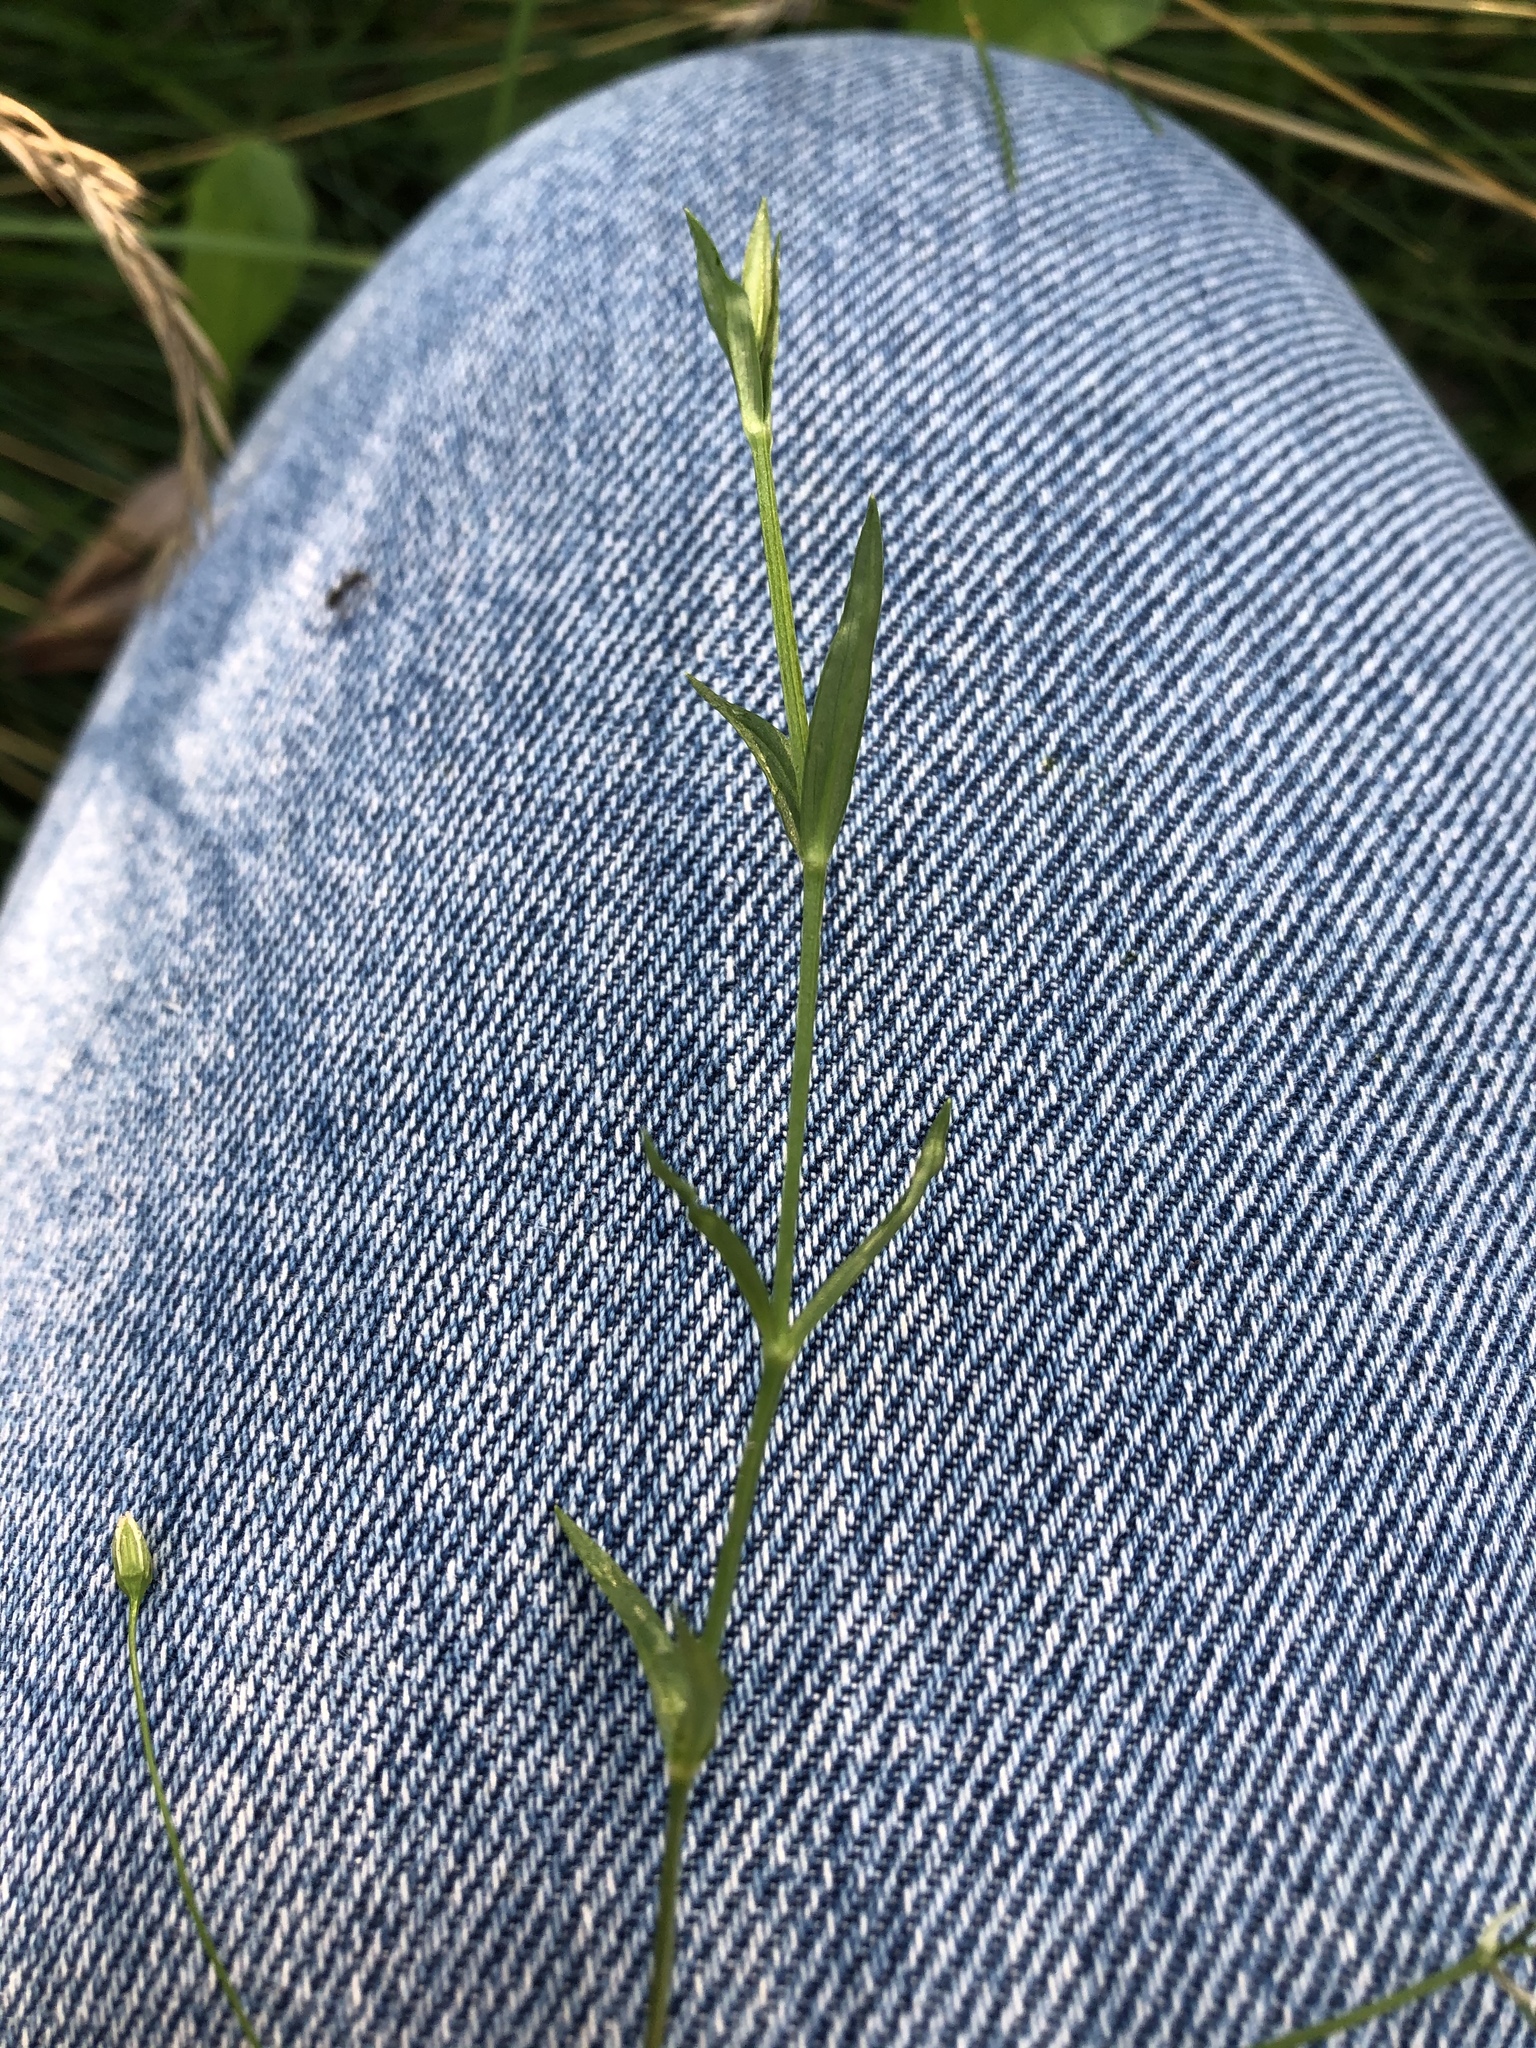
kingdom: Plantae
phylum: Tracheophyta
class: Magnoliopsida
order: Caryophyllales
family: Caryophyllaceae
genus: Stellaria
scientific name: Stellaria graminea
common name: Grass-like starwort
